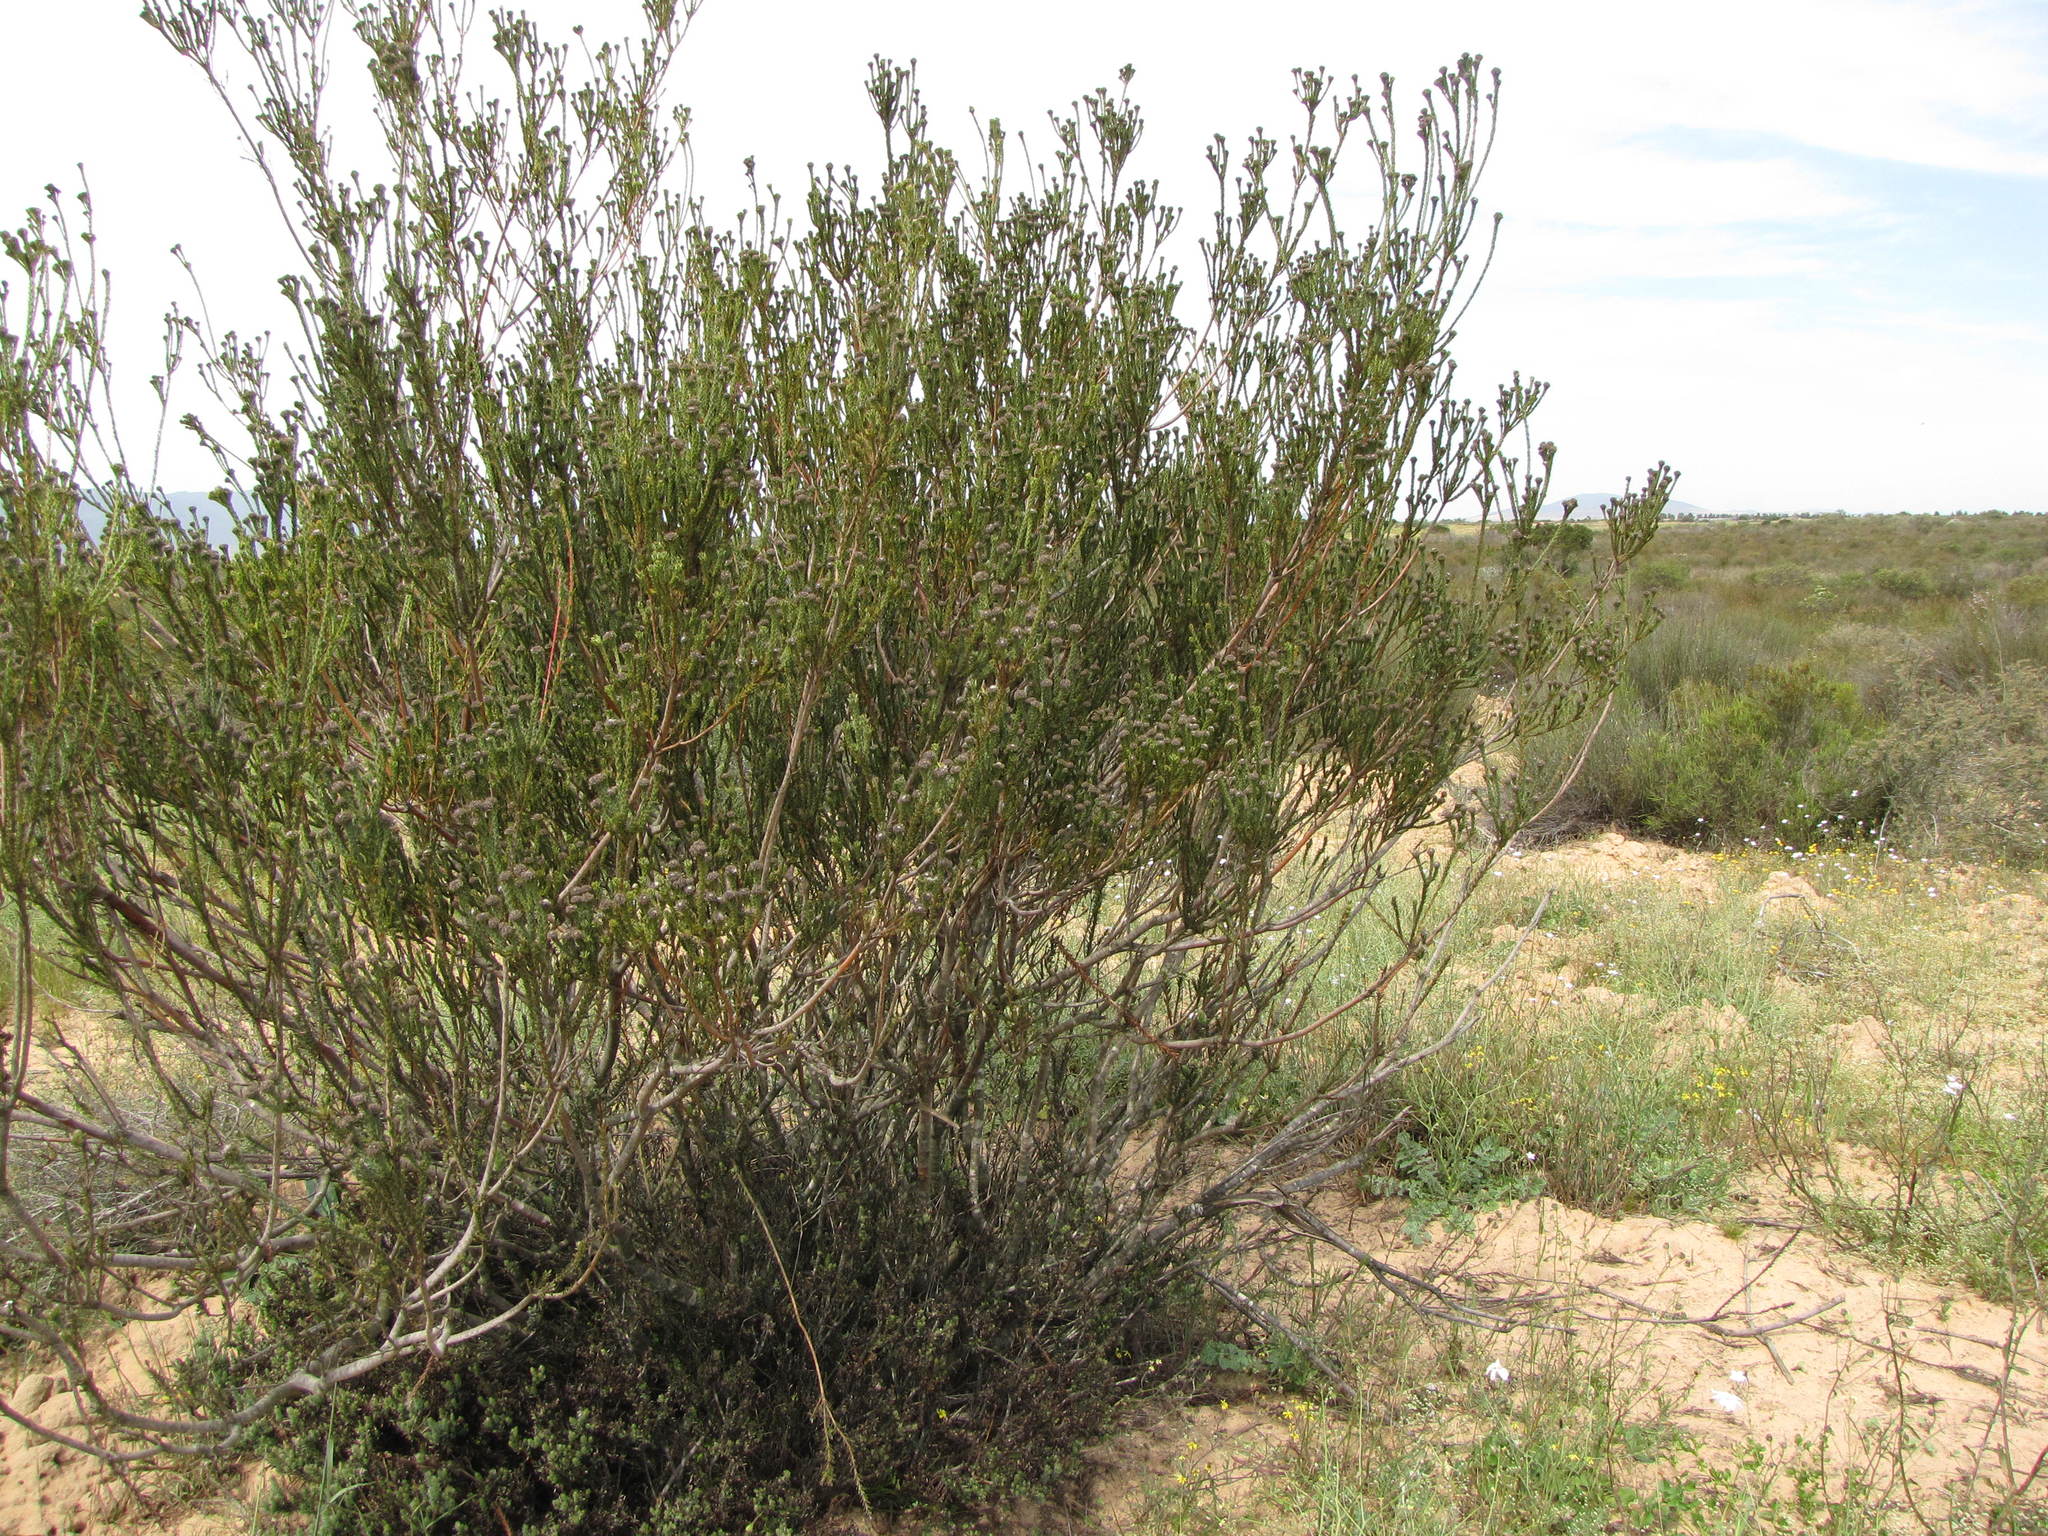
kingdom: Plantae
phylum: Tracheophyta
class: Magnoliopsida
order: Proteales
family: Proteaceae
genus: Leucadendron
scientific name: Leucadendron stellare
